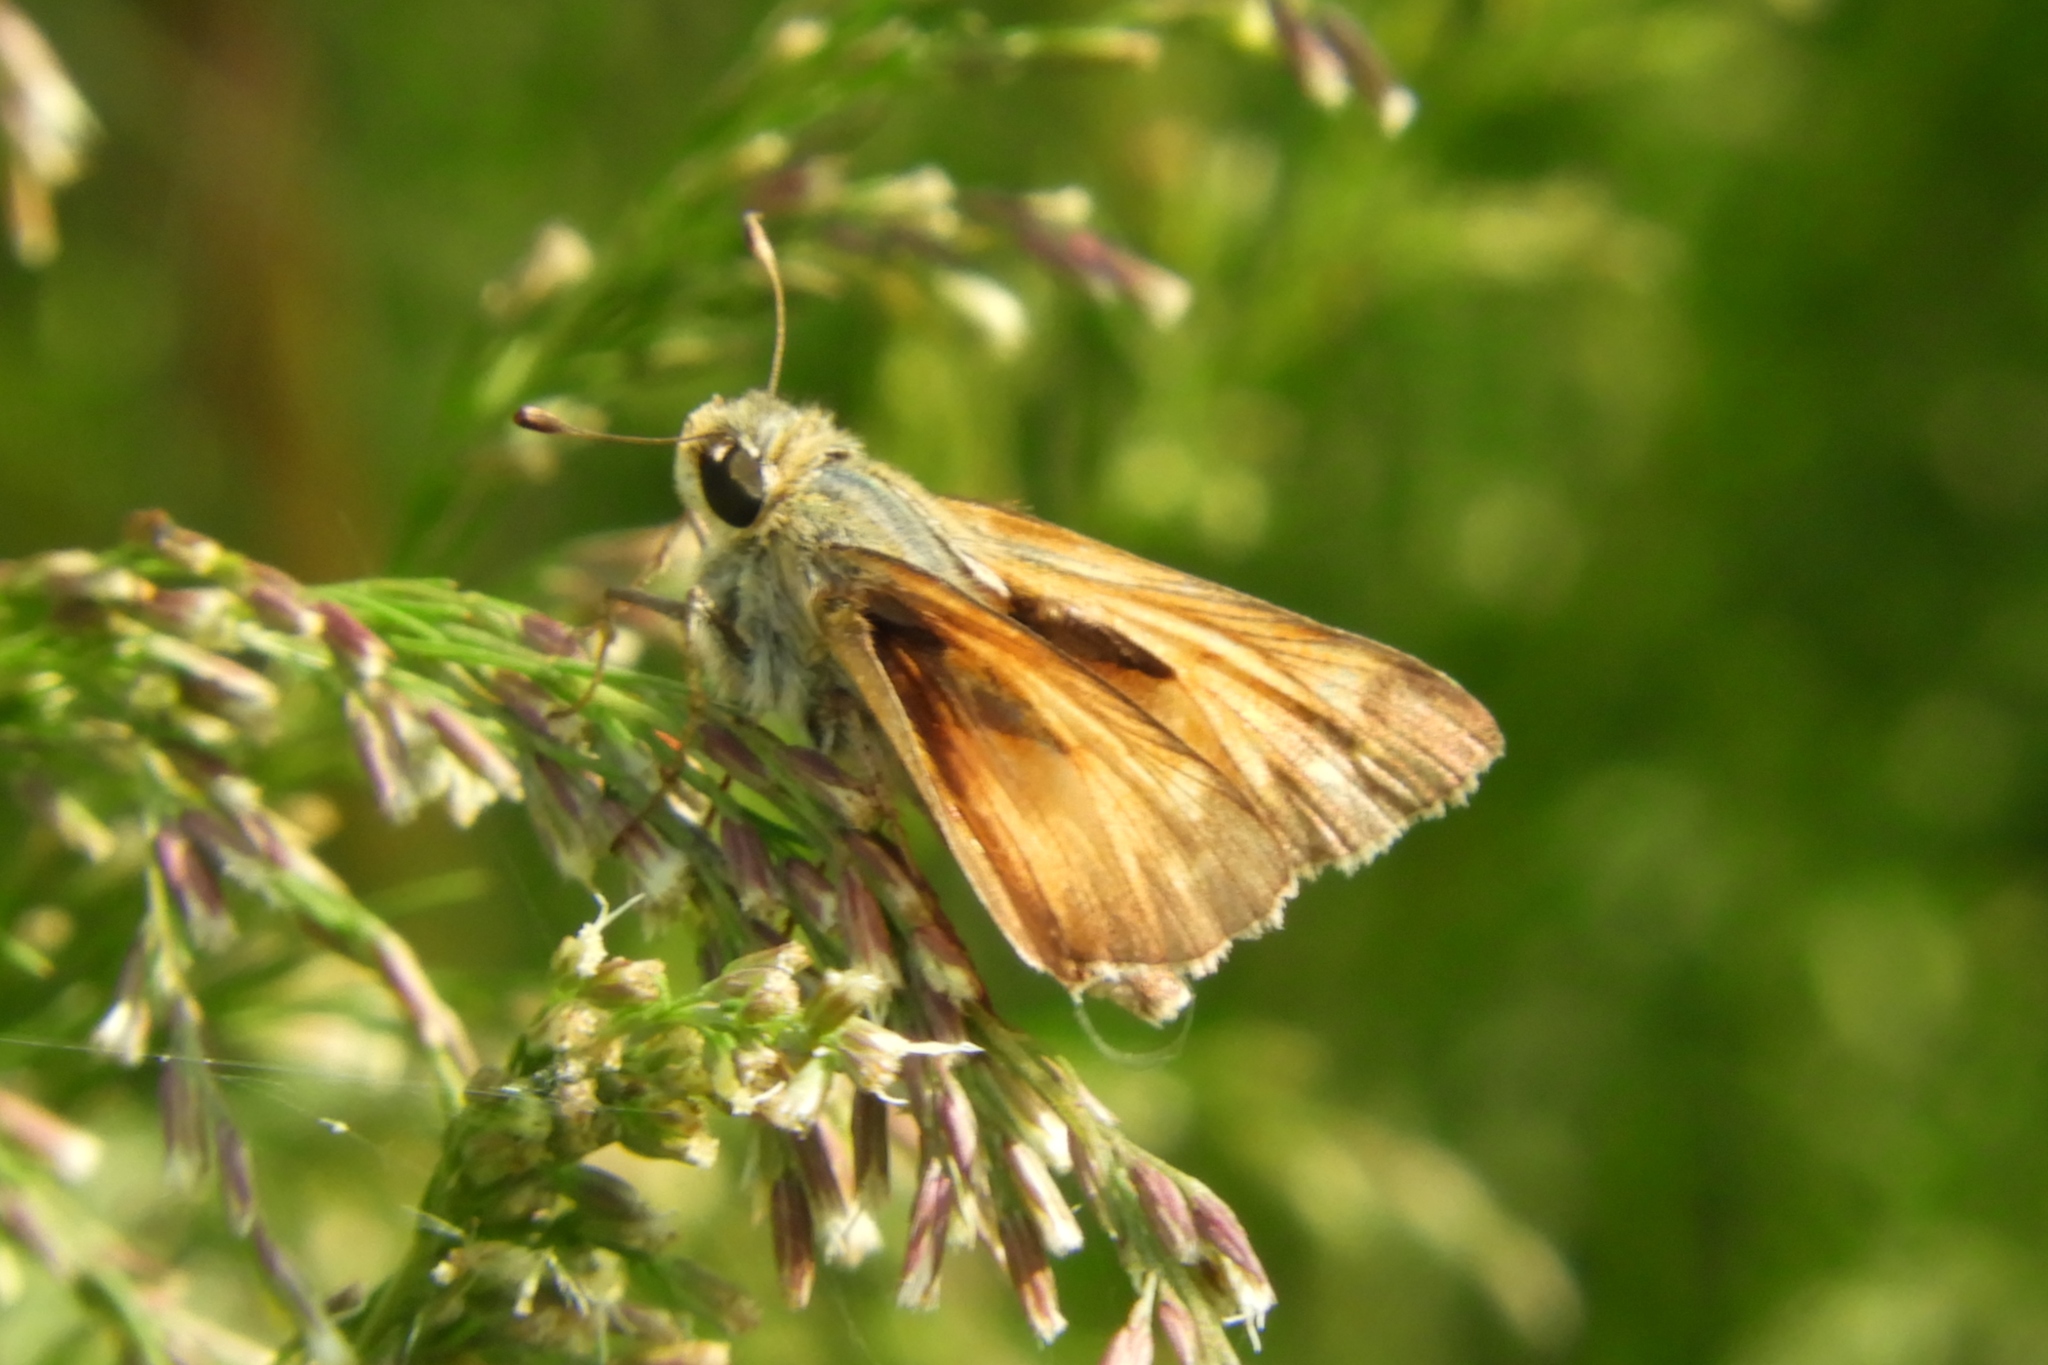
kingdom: Animalia
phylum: Arthropoda
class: Insecta
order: Lepidoptera
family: Hesperiidae
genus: Atalopedes
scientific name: Atalopedes
